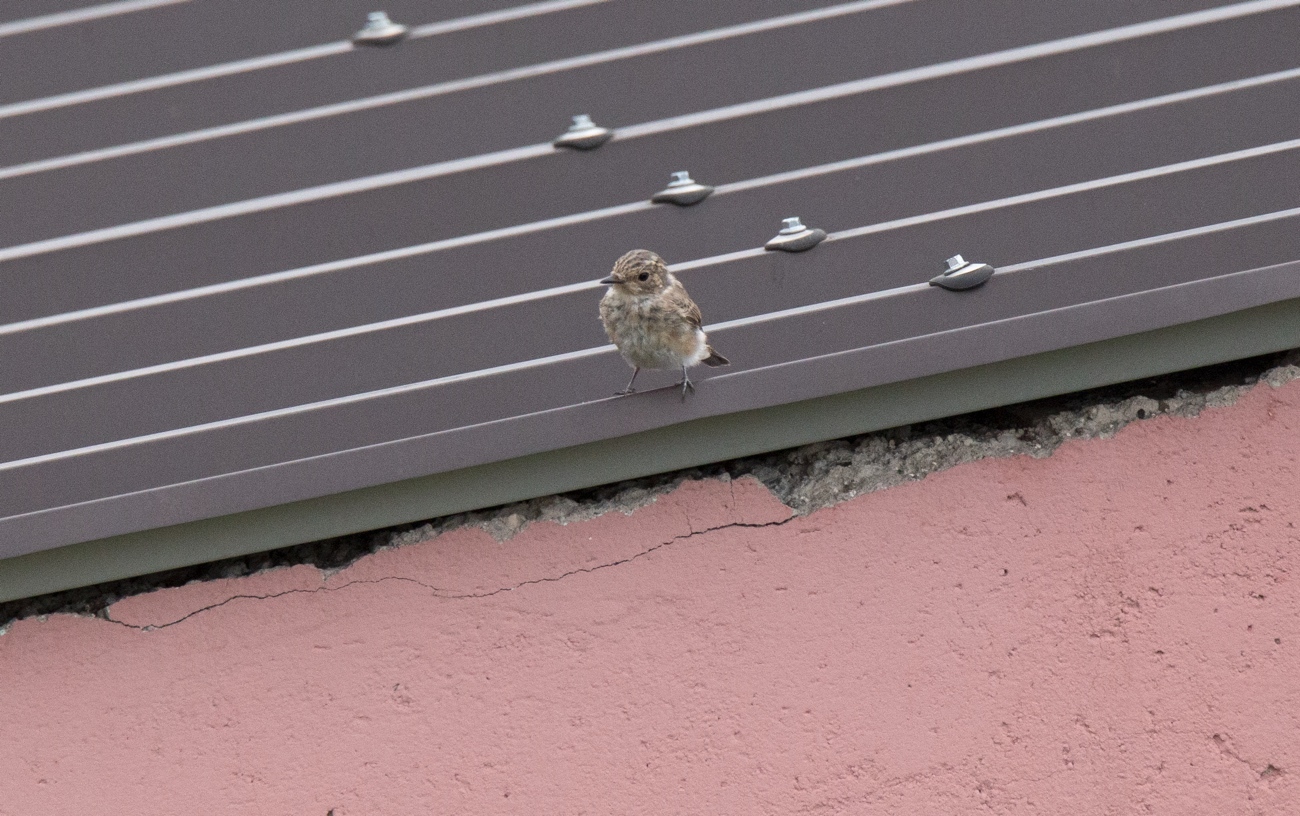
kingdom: Animalia
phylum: Chordata
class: Aves
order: Passeriformes
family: Muscicapidae
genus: Muscicapa
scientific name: Muscicapa striata
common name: Spotted flycatcher
